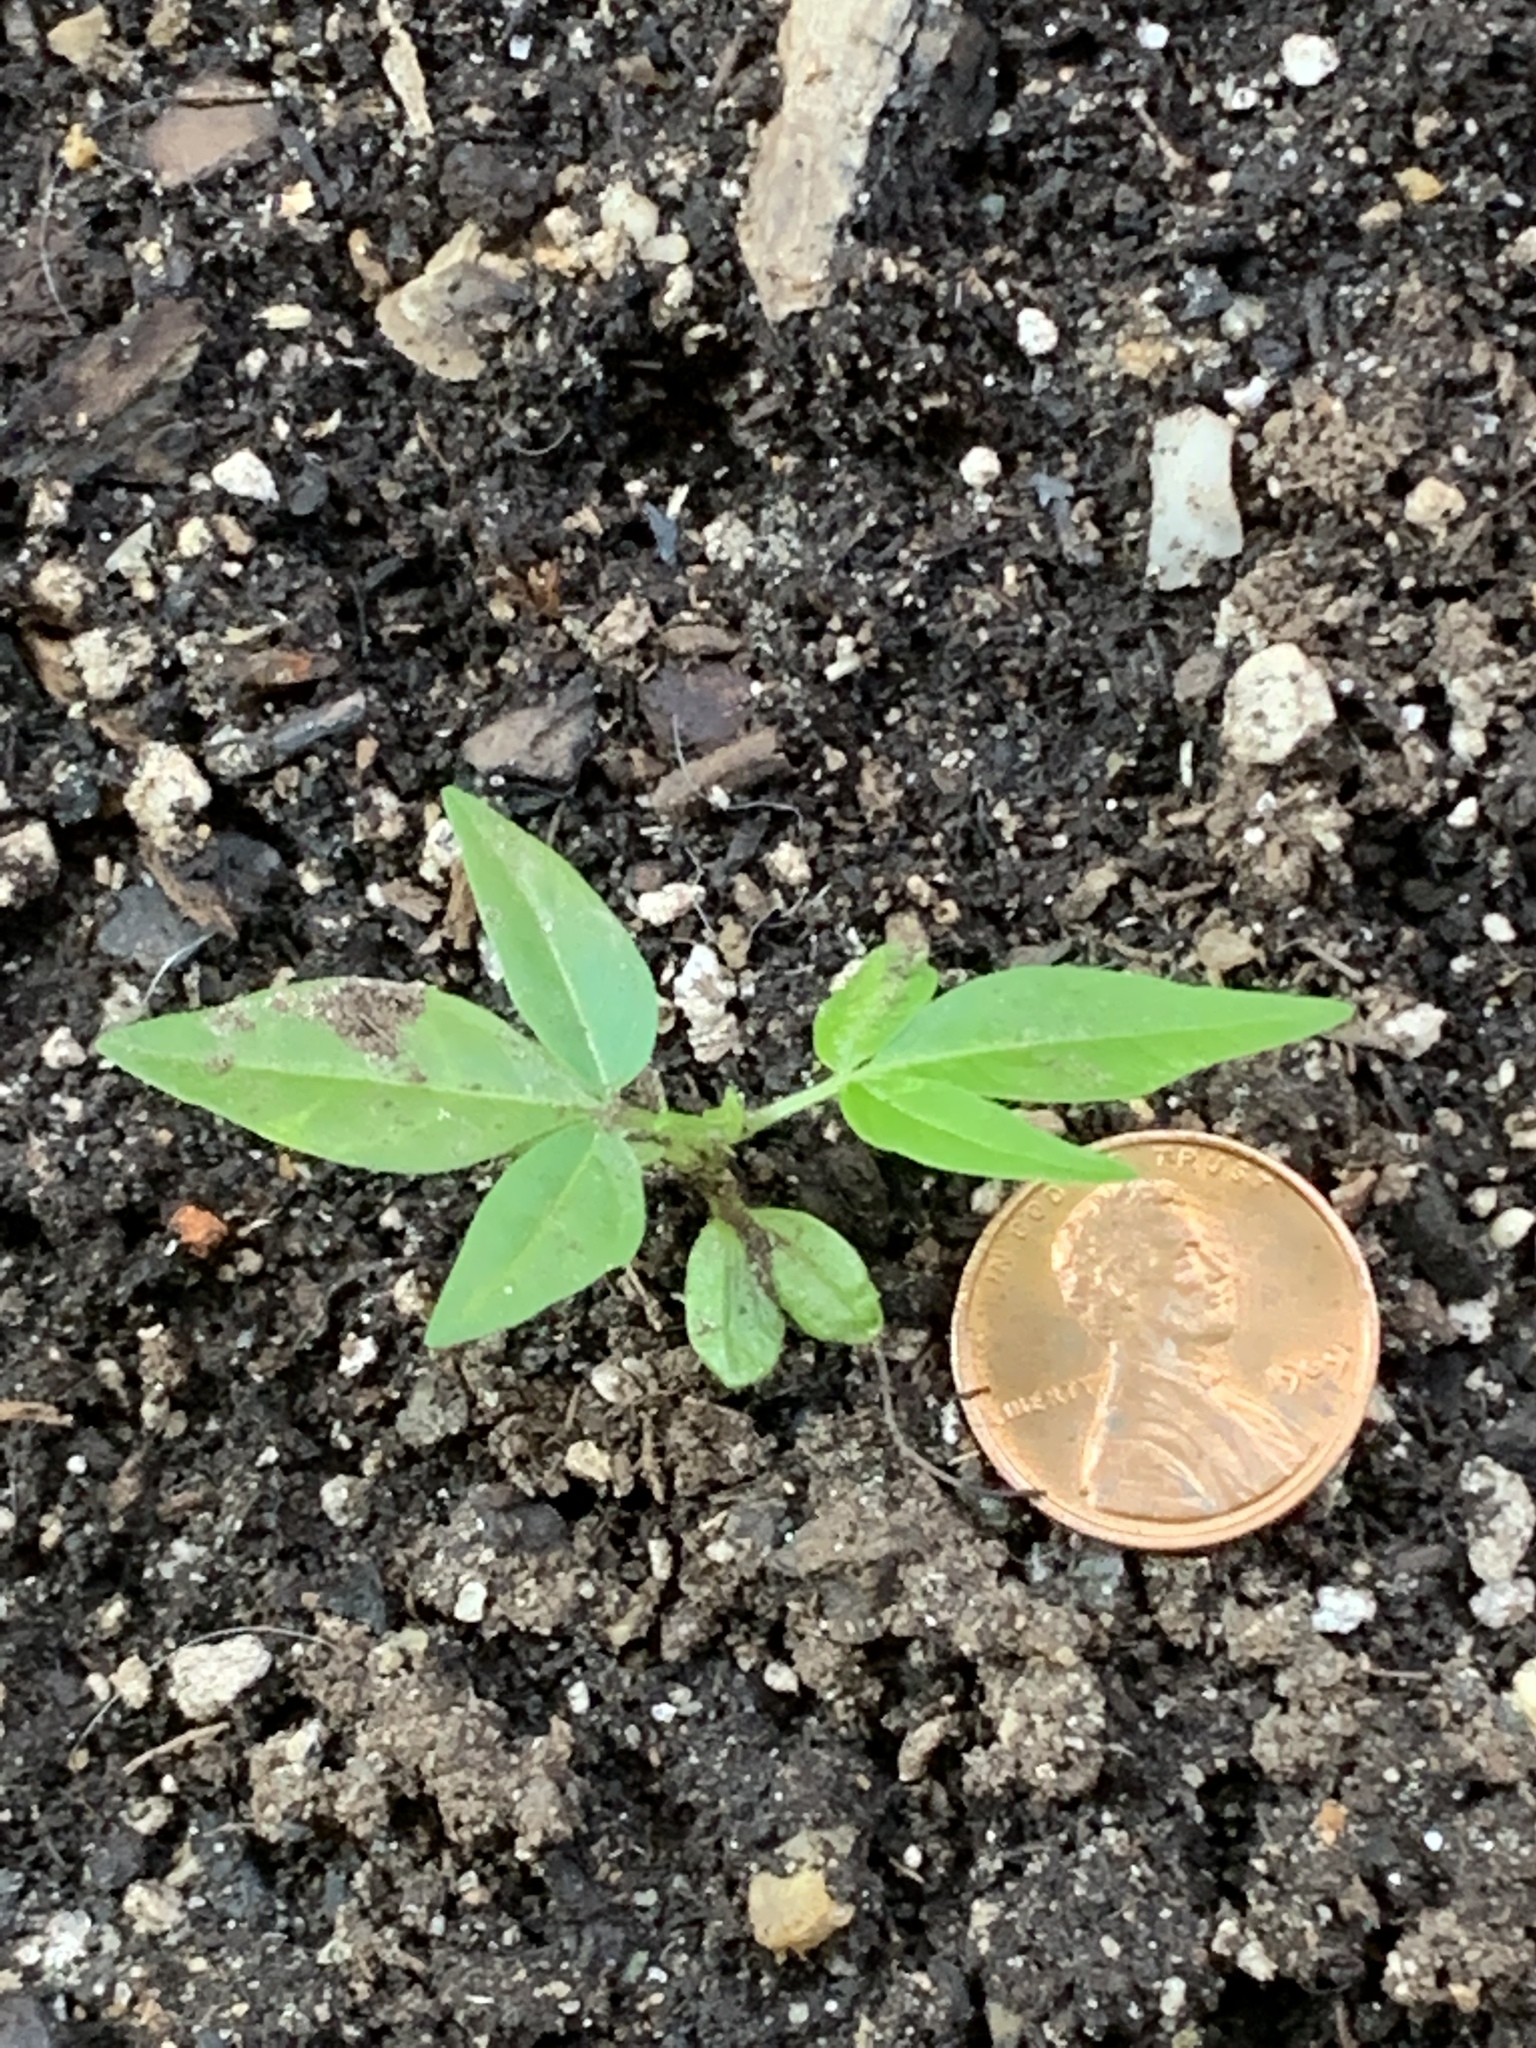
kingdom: Plantae
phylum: Tracheophyta
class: Magnoliopsida
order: Sapindales
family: Simaroubaceae
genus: Ailanthus
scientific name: Ailanthus altissima
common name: Tree-of-heaven
